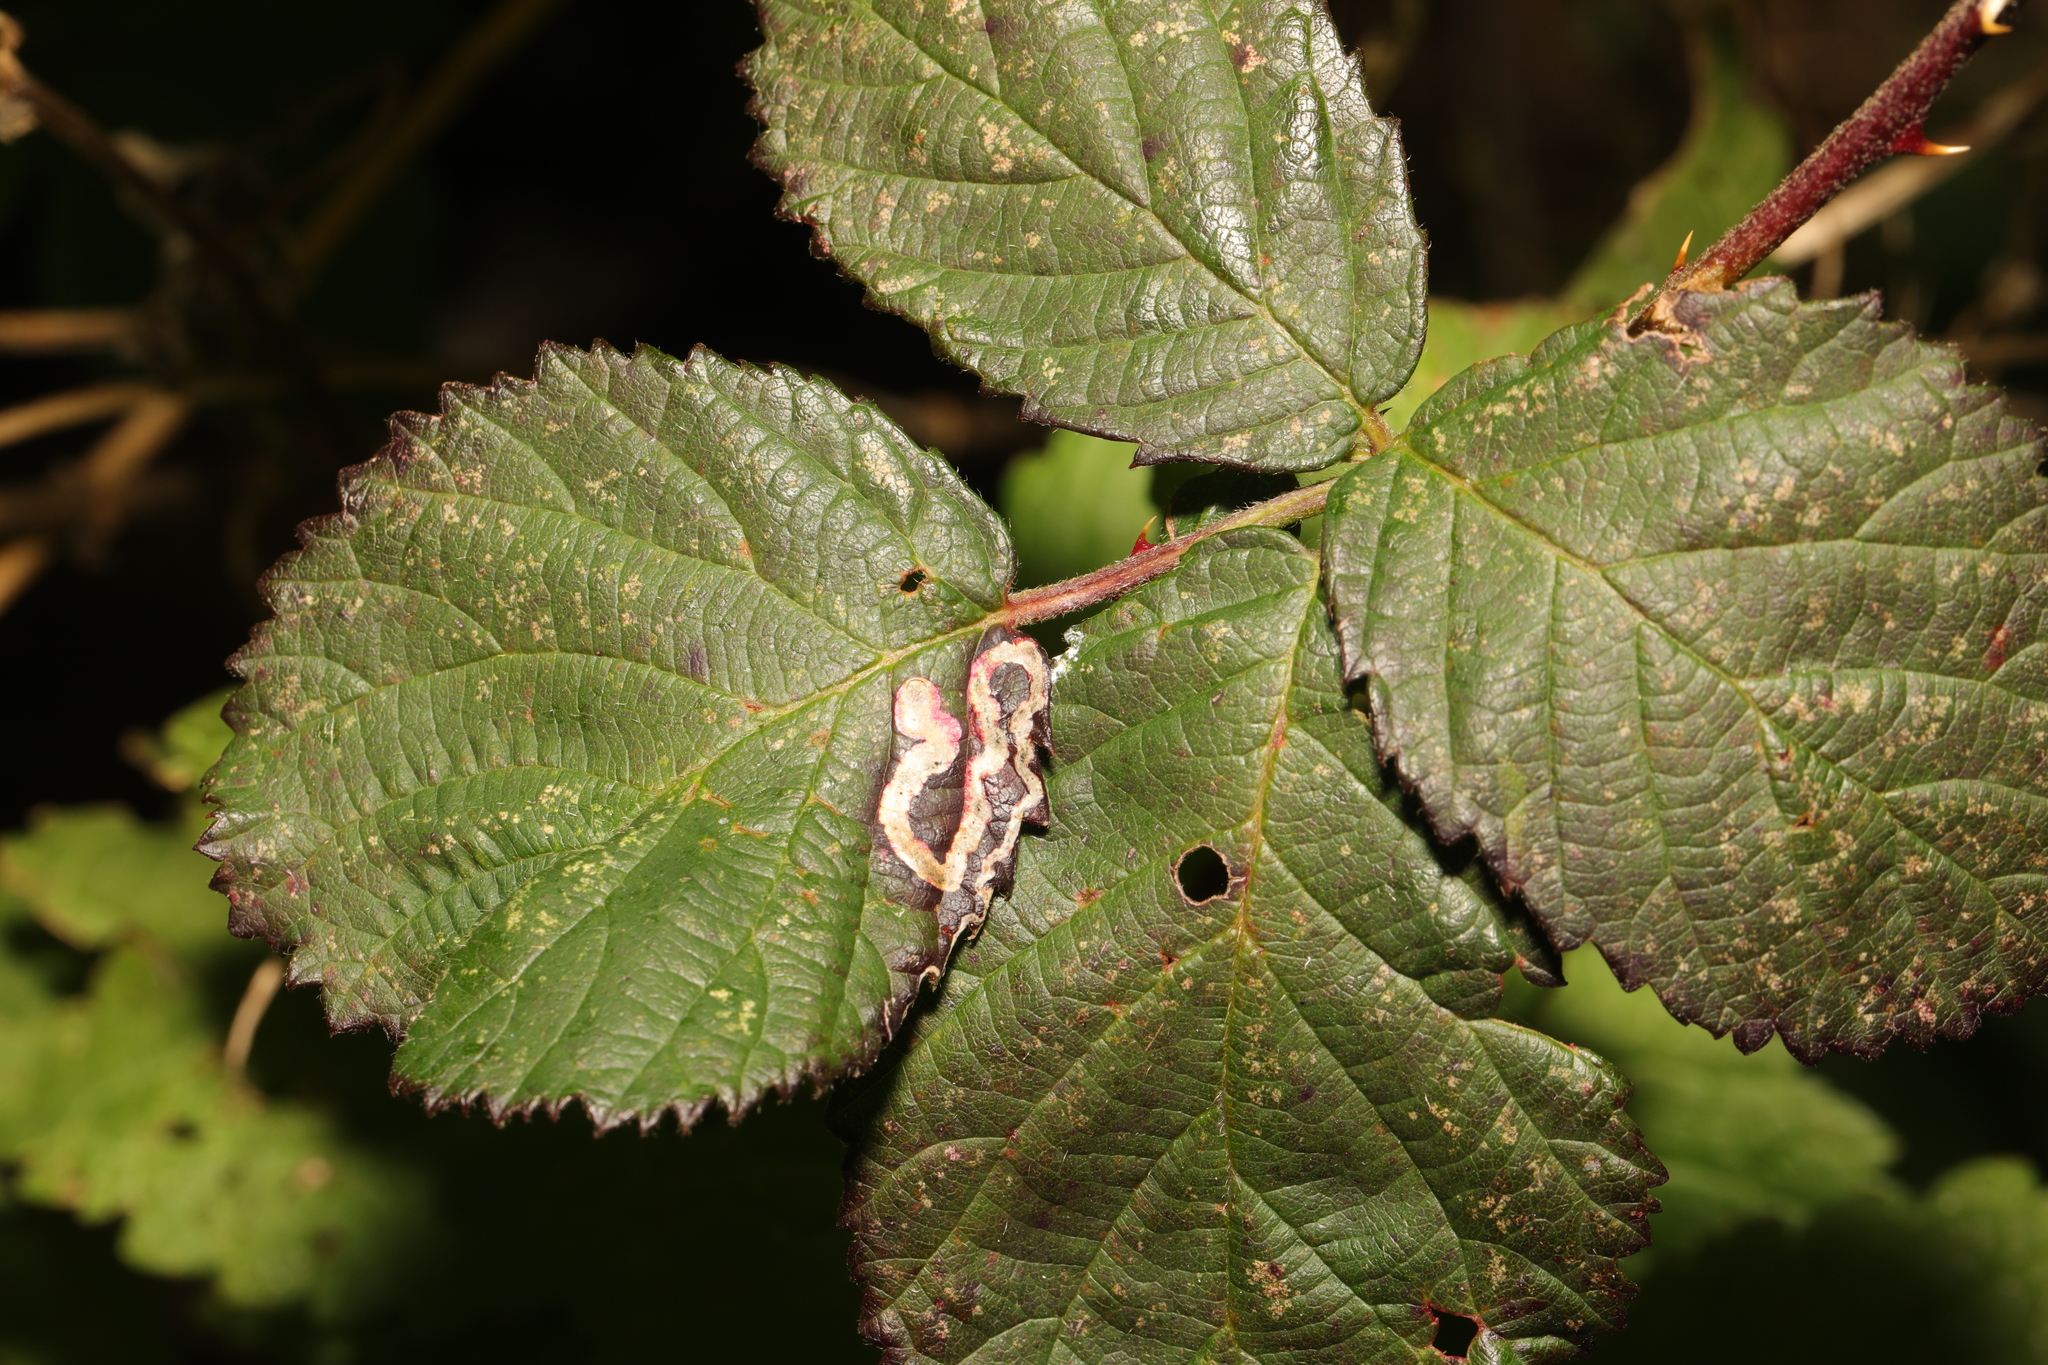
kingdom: Animalia
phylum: Arthropoda
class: Insecta
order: Lepidoptera
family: Nepticulidae
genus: Stigmella
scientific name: Stigmella aurella
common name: Golden pigmy
